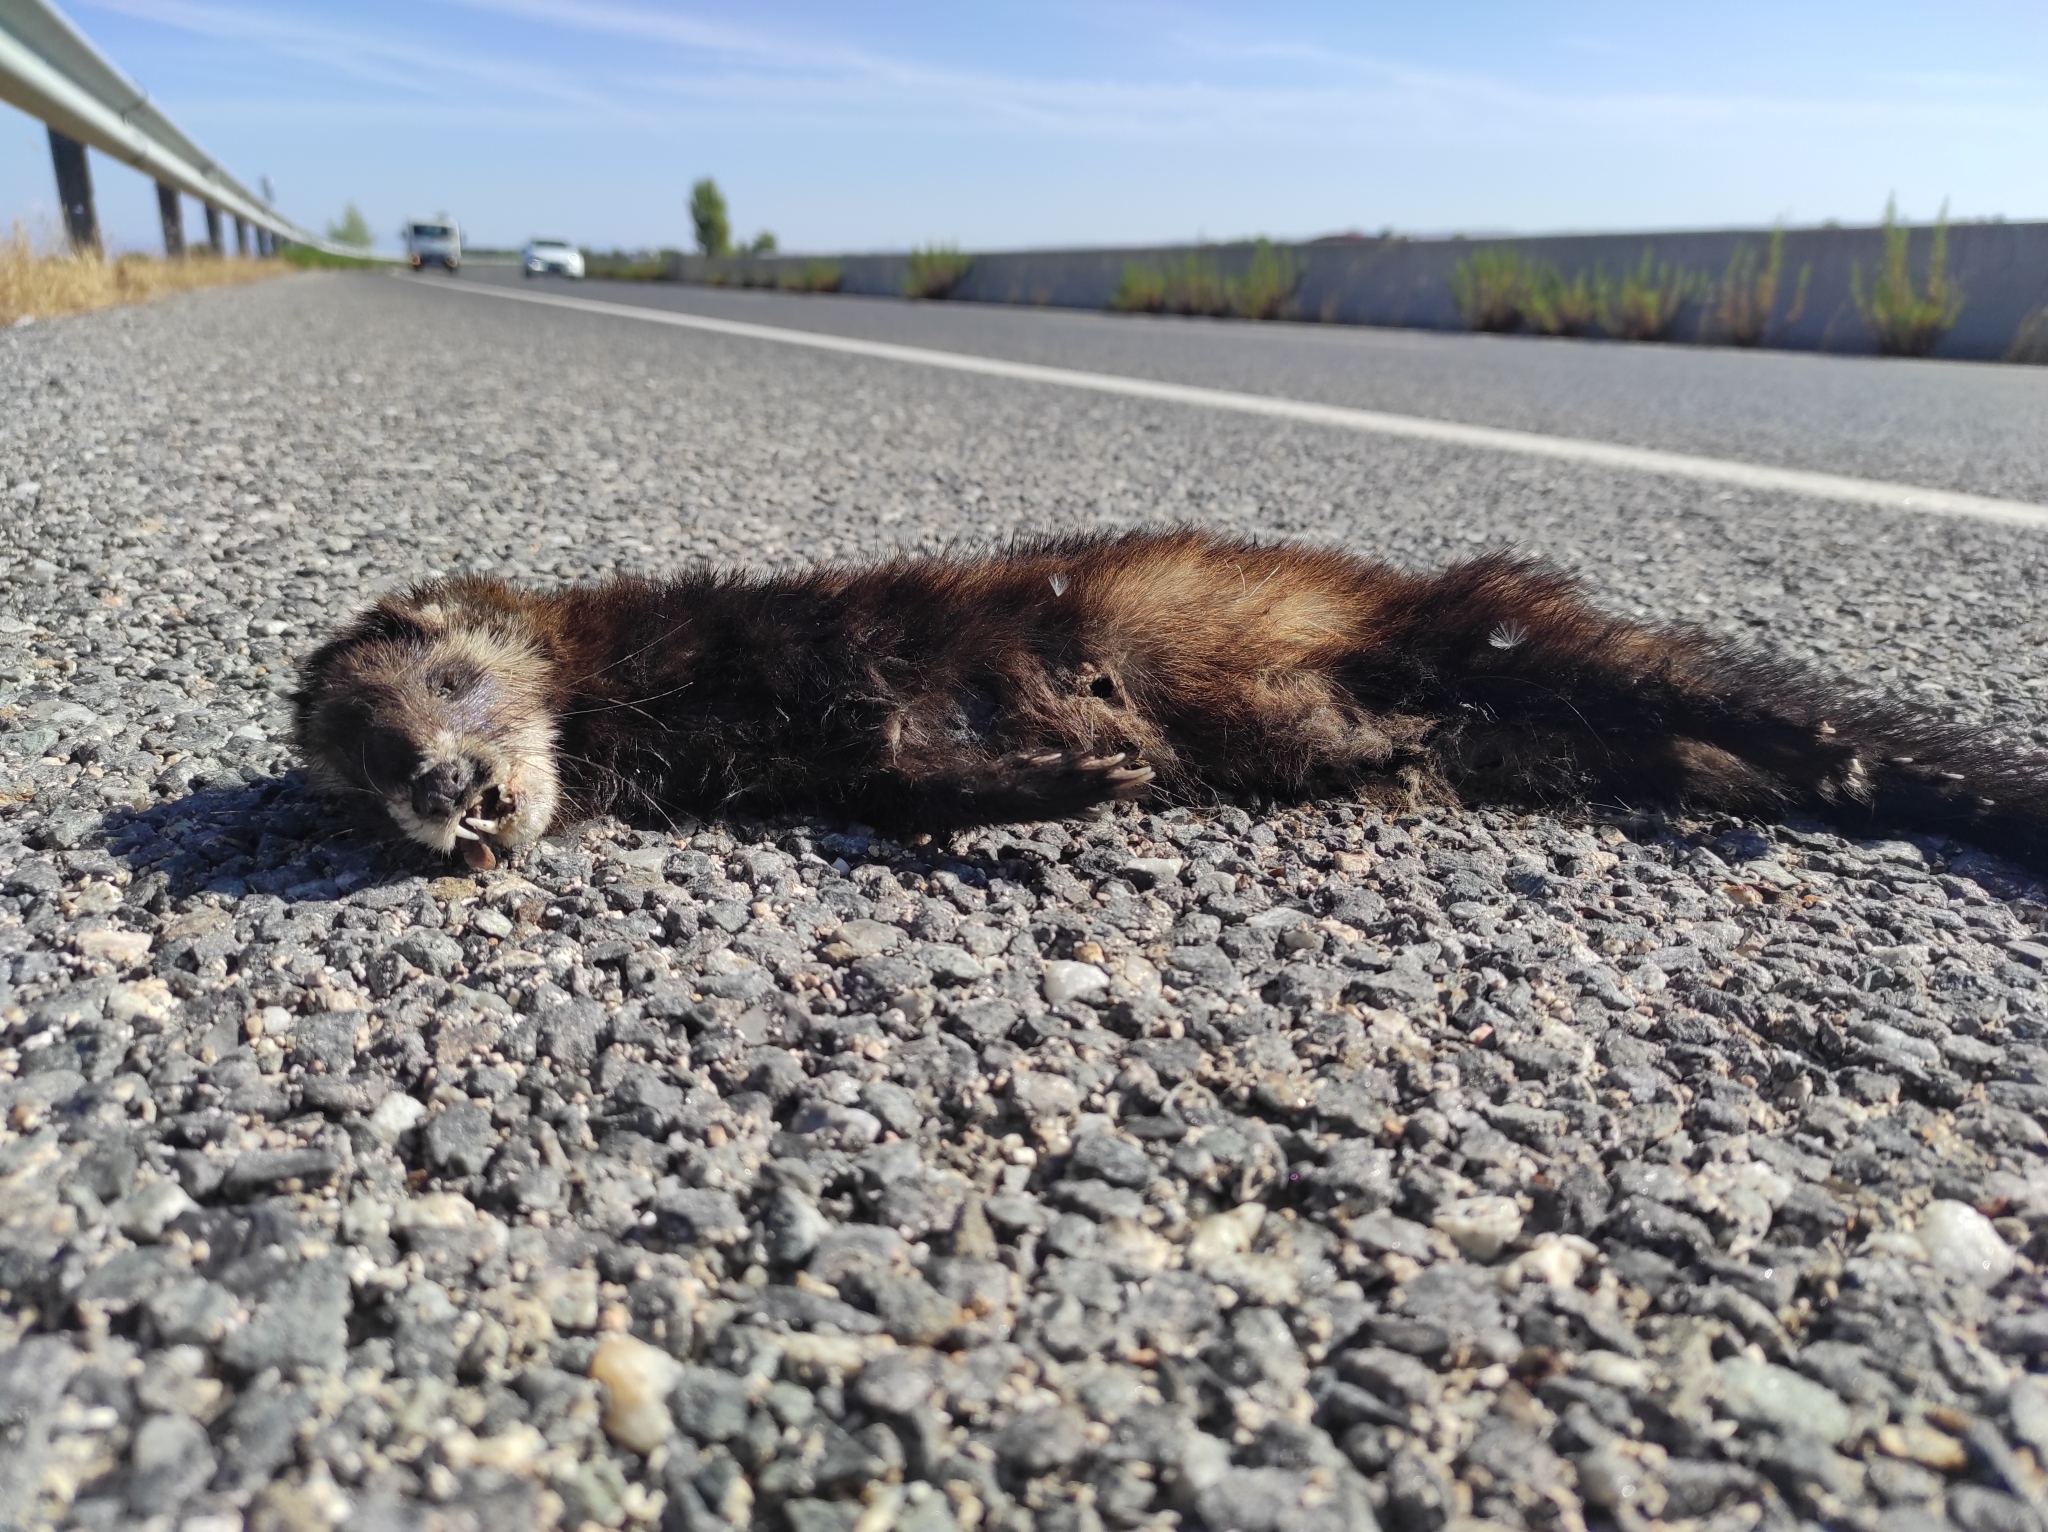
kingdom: Animalia
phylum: Chordata
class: Mammalia
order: Carnivora
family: Mustelidae
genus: Mustela
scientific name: Mustela putorius
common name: European polecat
